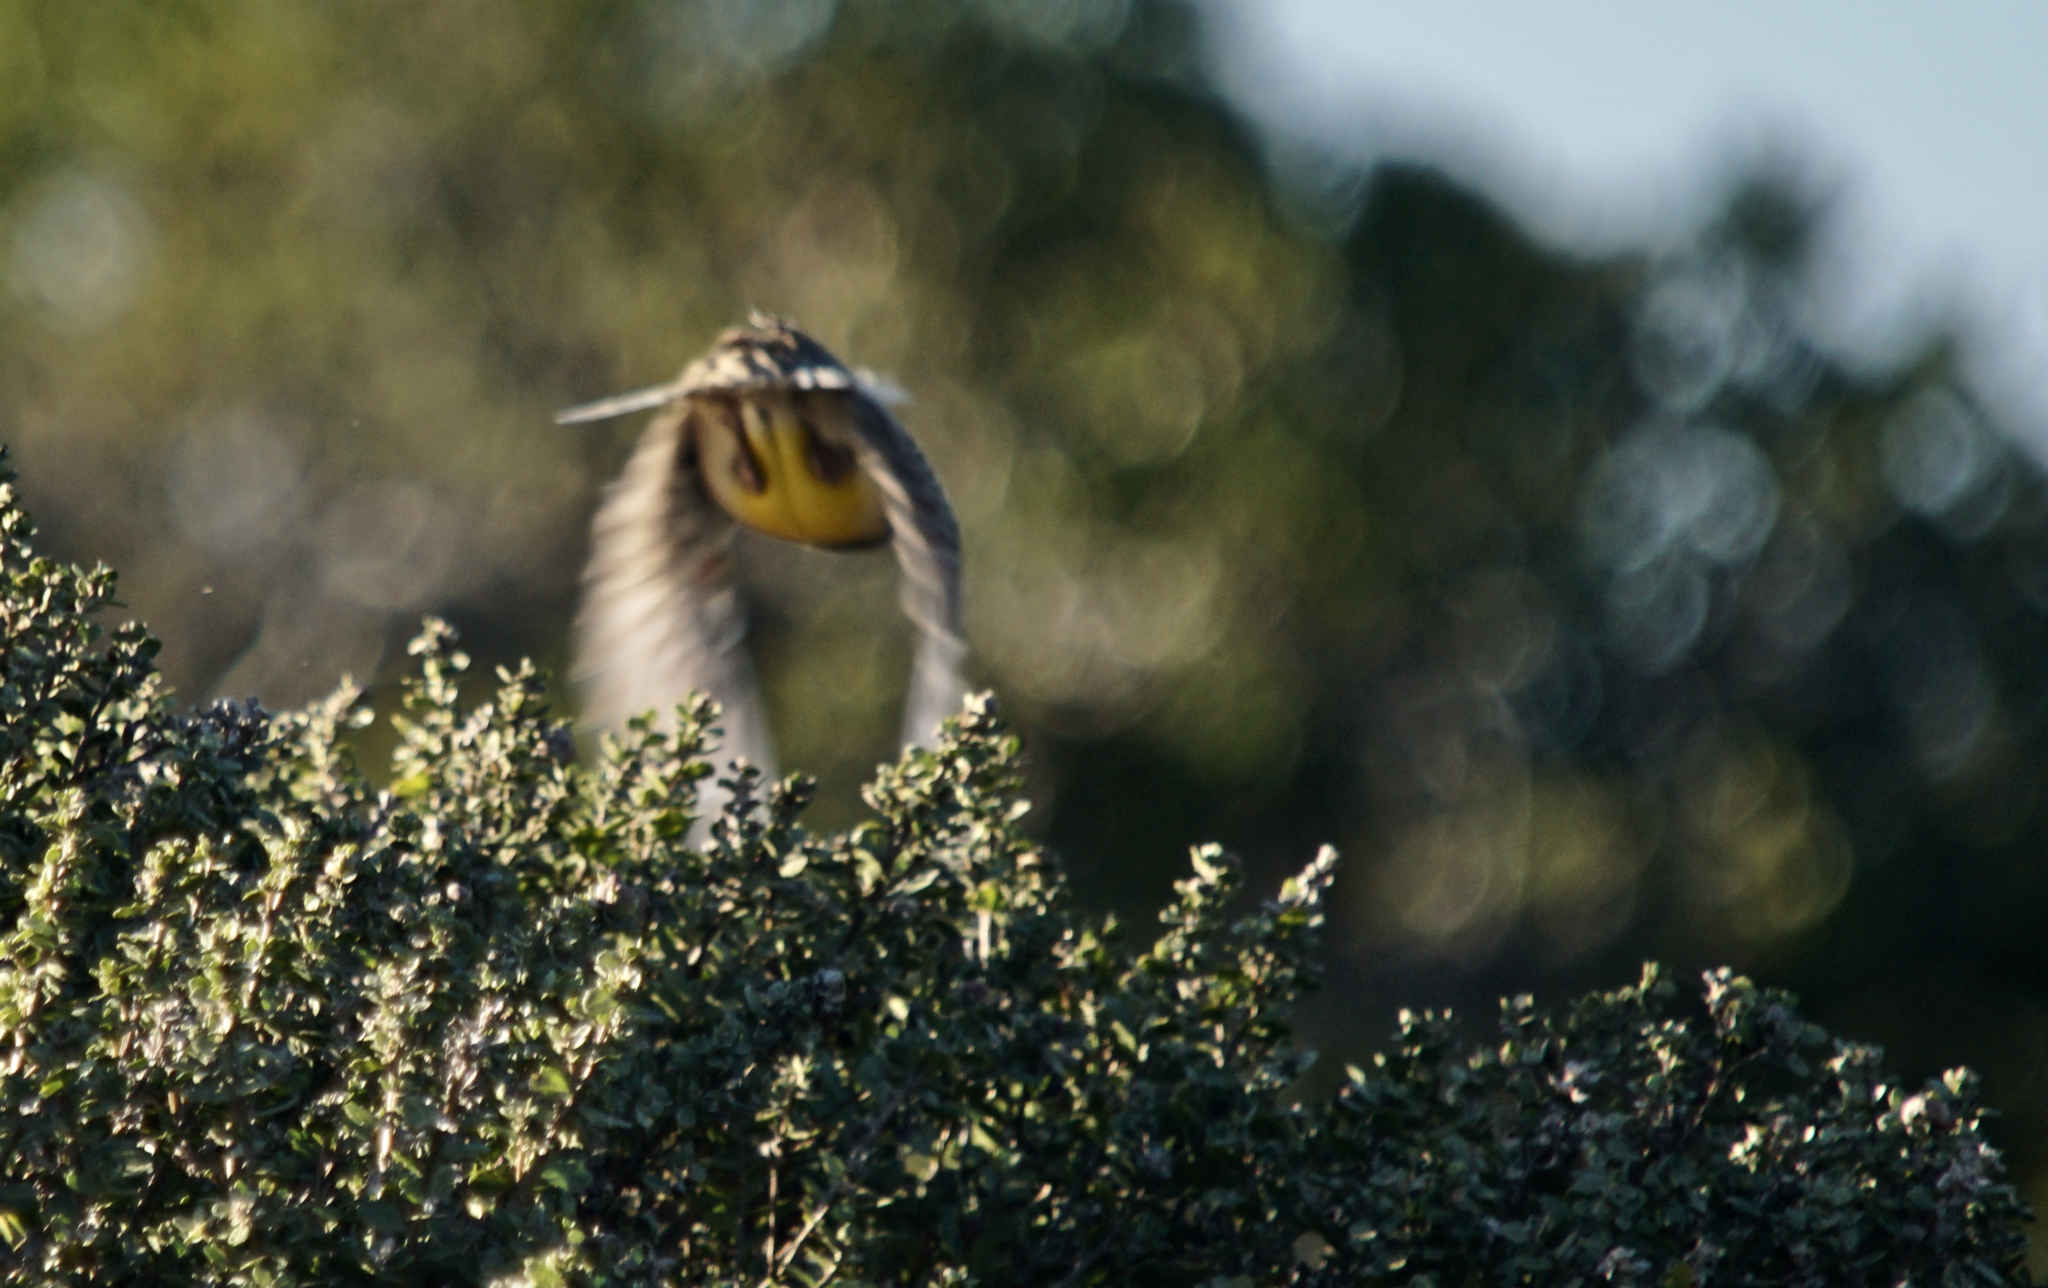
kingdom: Animalia
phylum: Chordata
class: Aves
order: Passeriformes
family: Icteridae
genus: Sturnella
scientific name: Sturnella neglecta
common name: Western meadowlark
